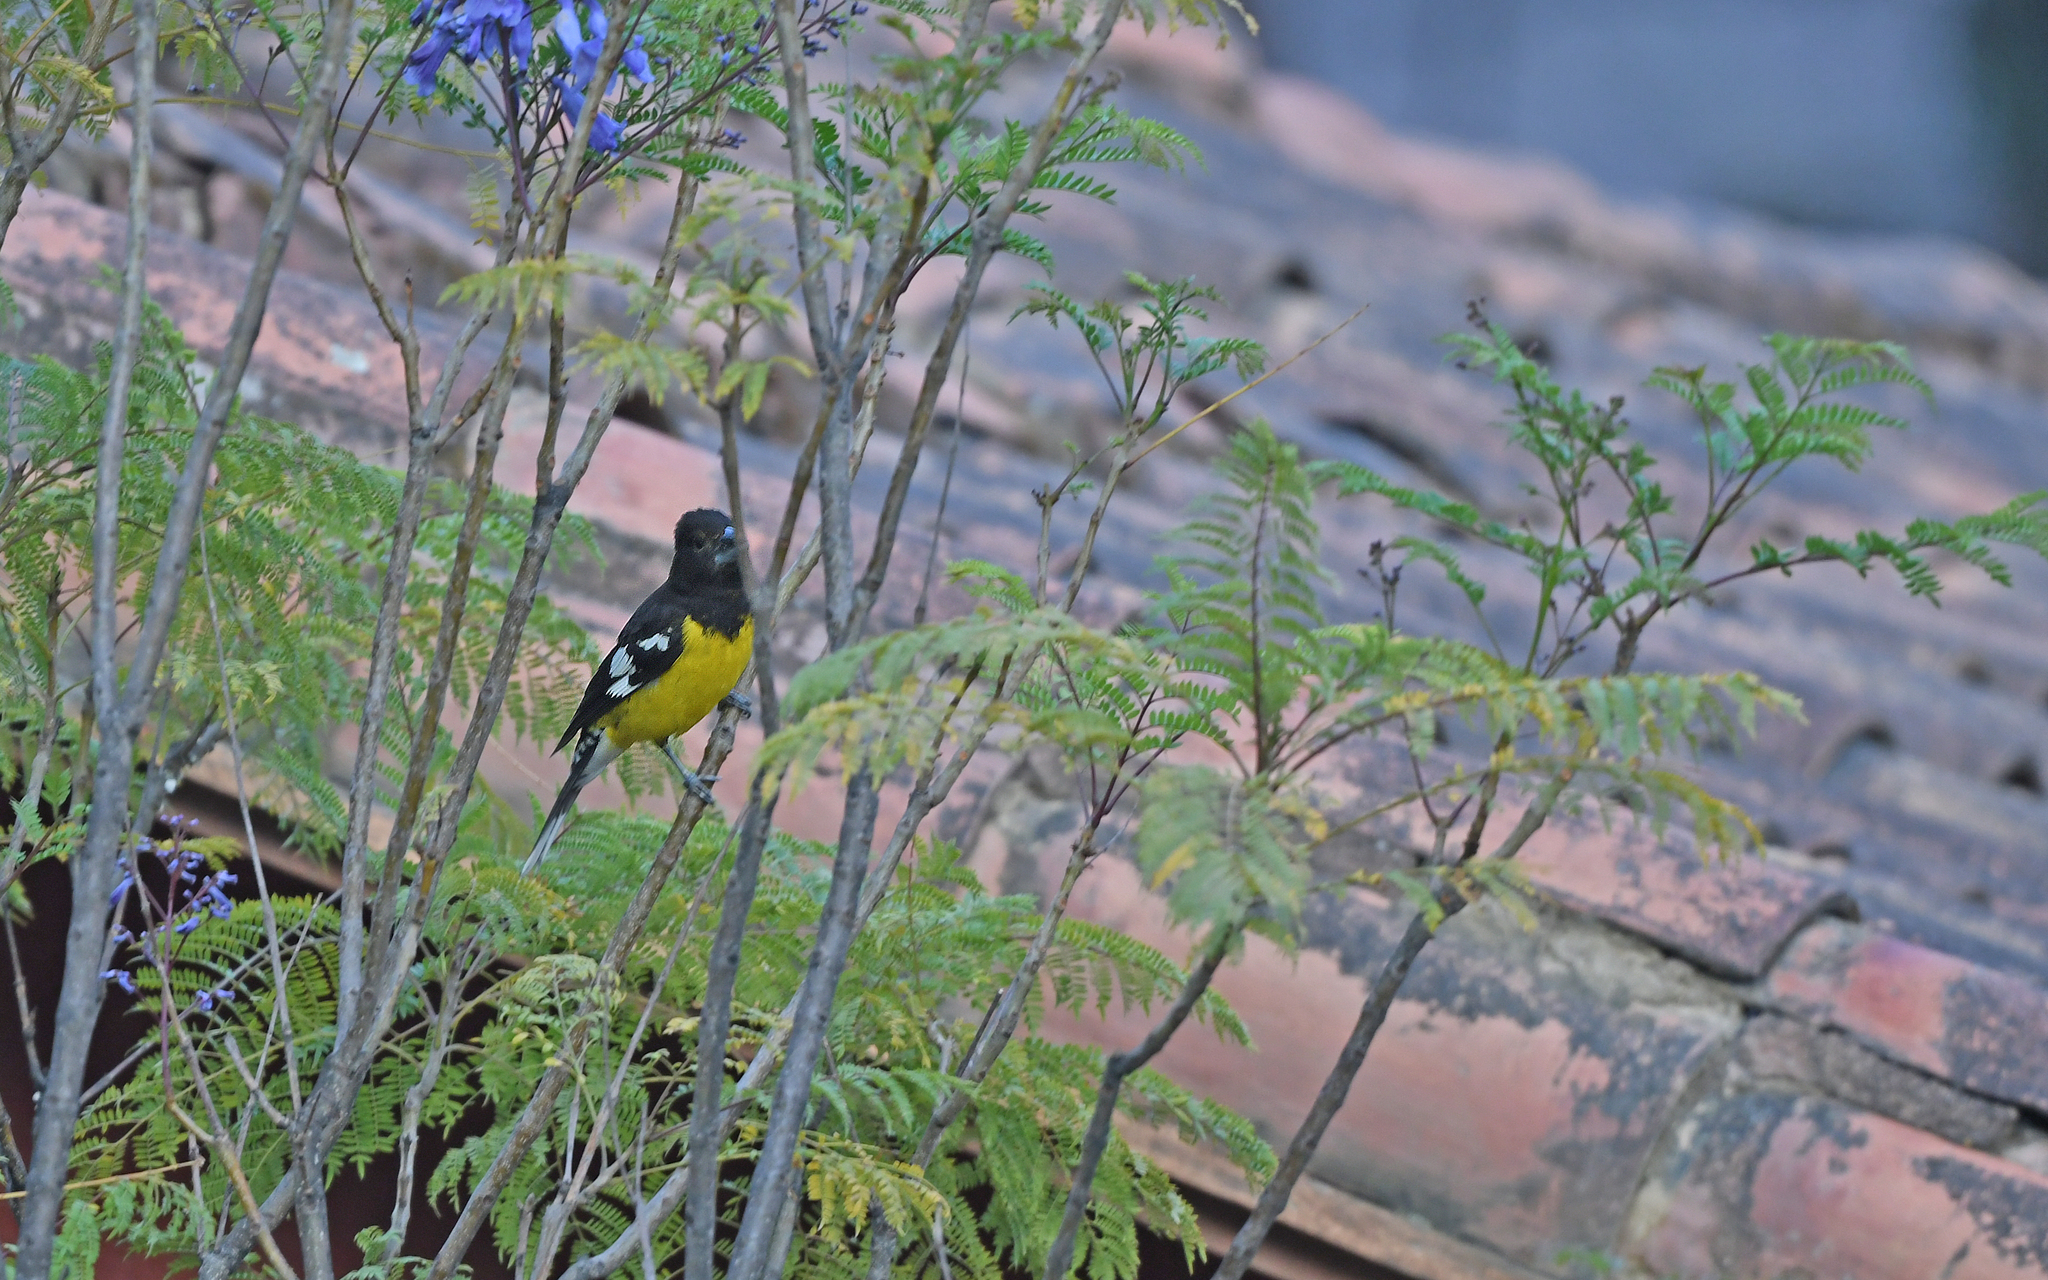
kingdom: Animalia
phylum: Chordata
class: Aves
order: Passeriformes
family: Cardinalidae
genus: Pheucticus
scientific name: Pheucticus aureoventris
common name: Black-backed grosbeak
